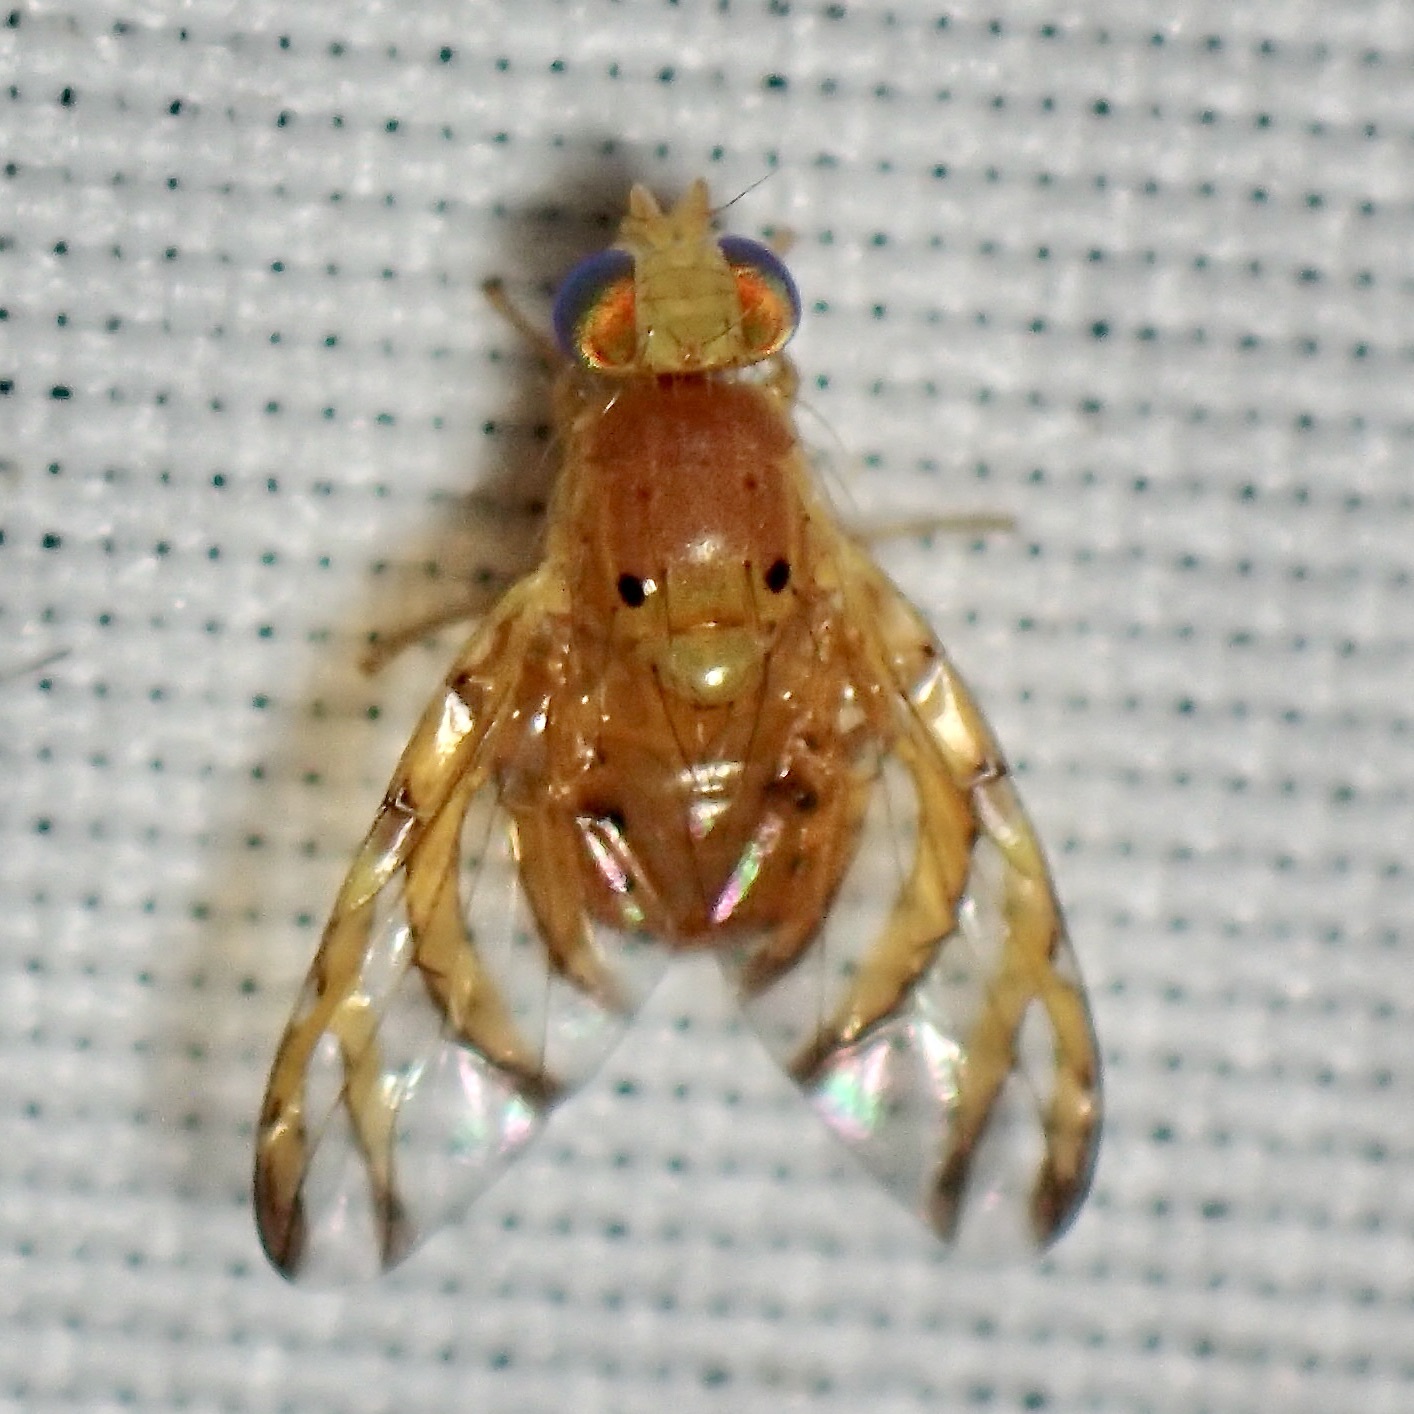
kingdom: Animalia
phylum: Arthropoda
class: Insecta
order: Diptera
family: Tephritidae
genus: Tomoplagia
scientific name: Tomoplagia cressoni
